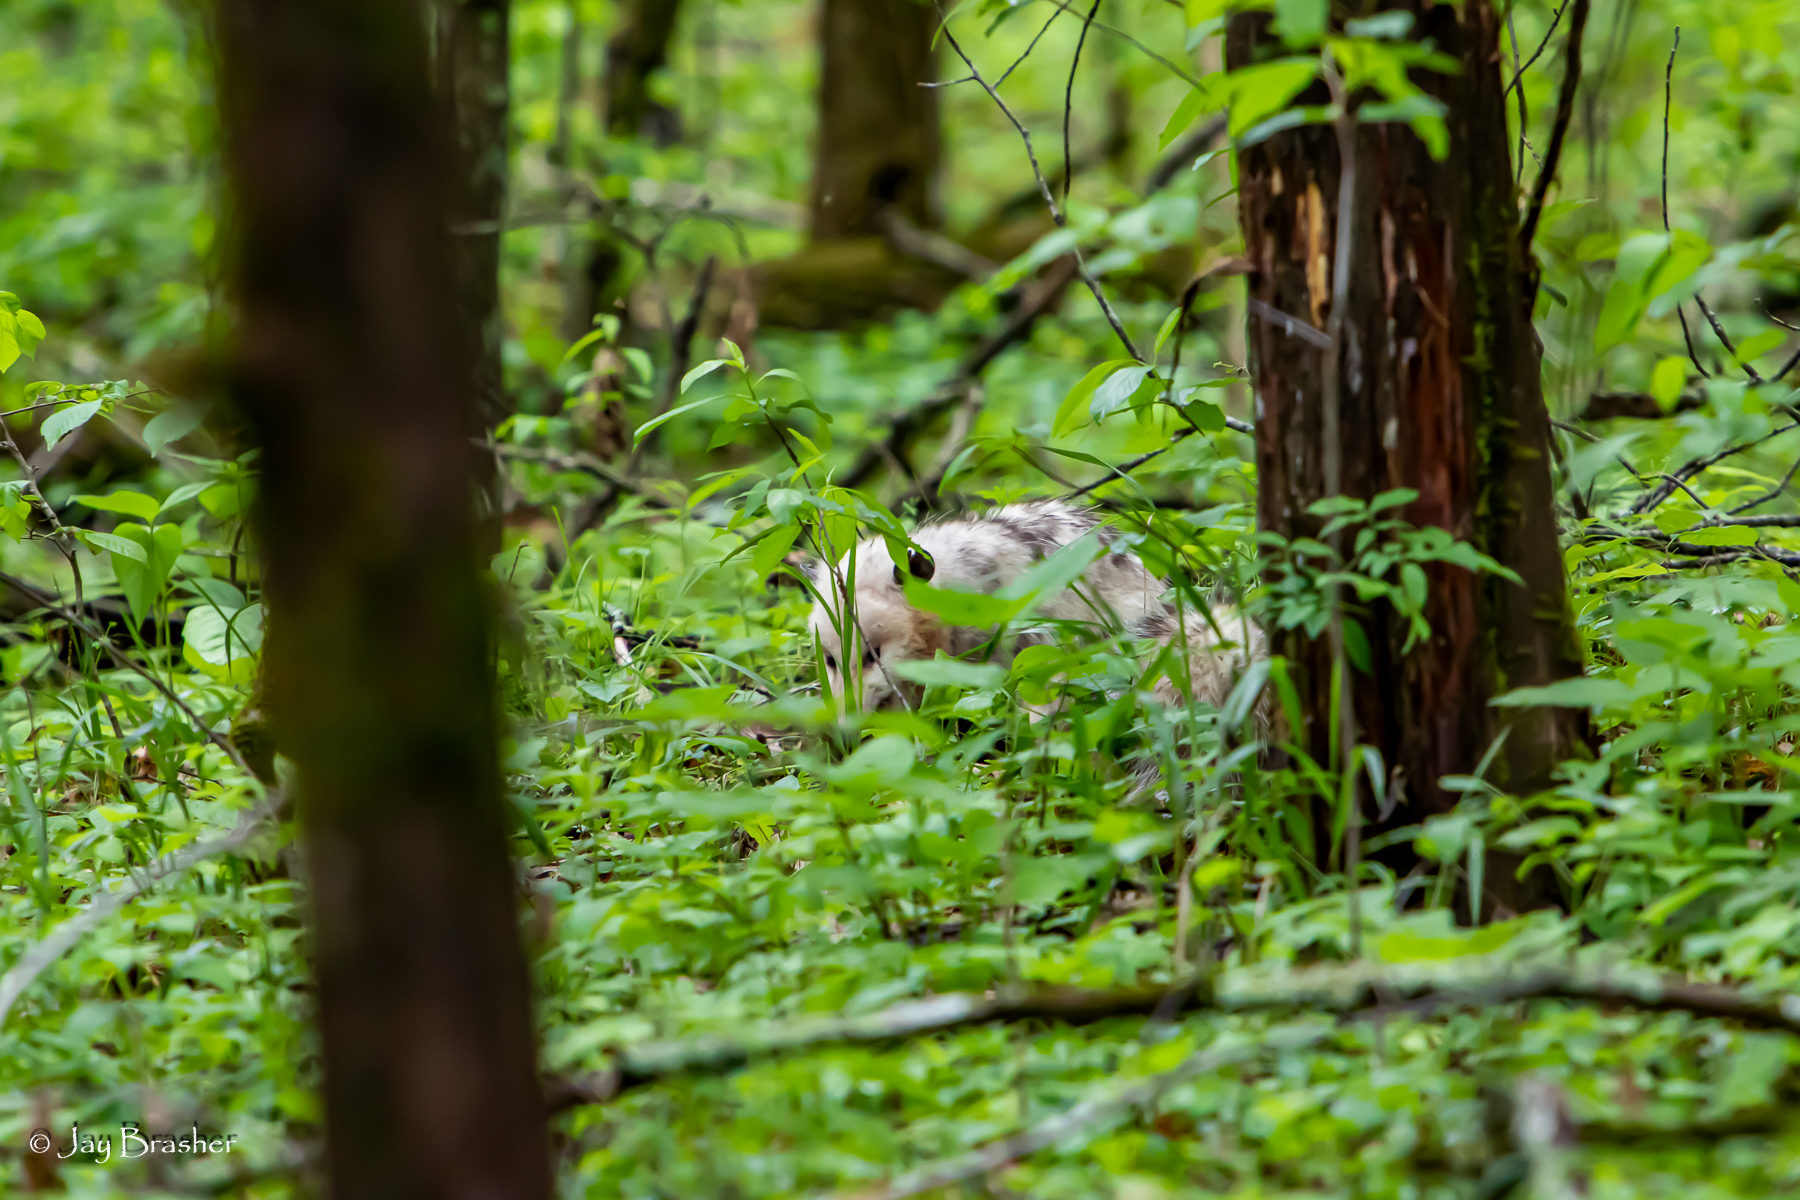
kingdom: Animalia
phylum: Chordata
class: Mammalia
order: Didelphimorphia
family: Didelphidae
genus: Didelphis
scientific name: Didelphis virginiana
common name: Virginia opossum
